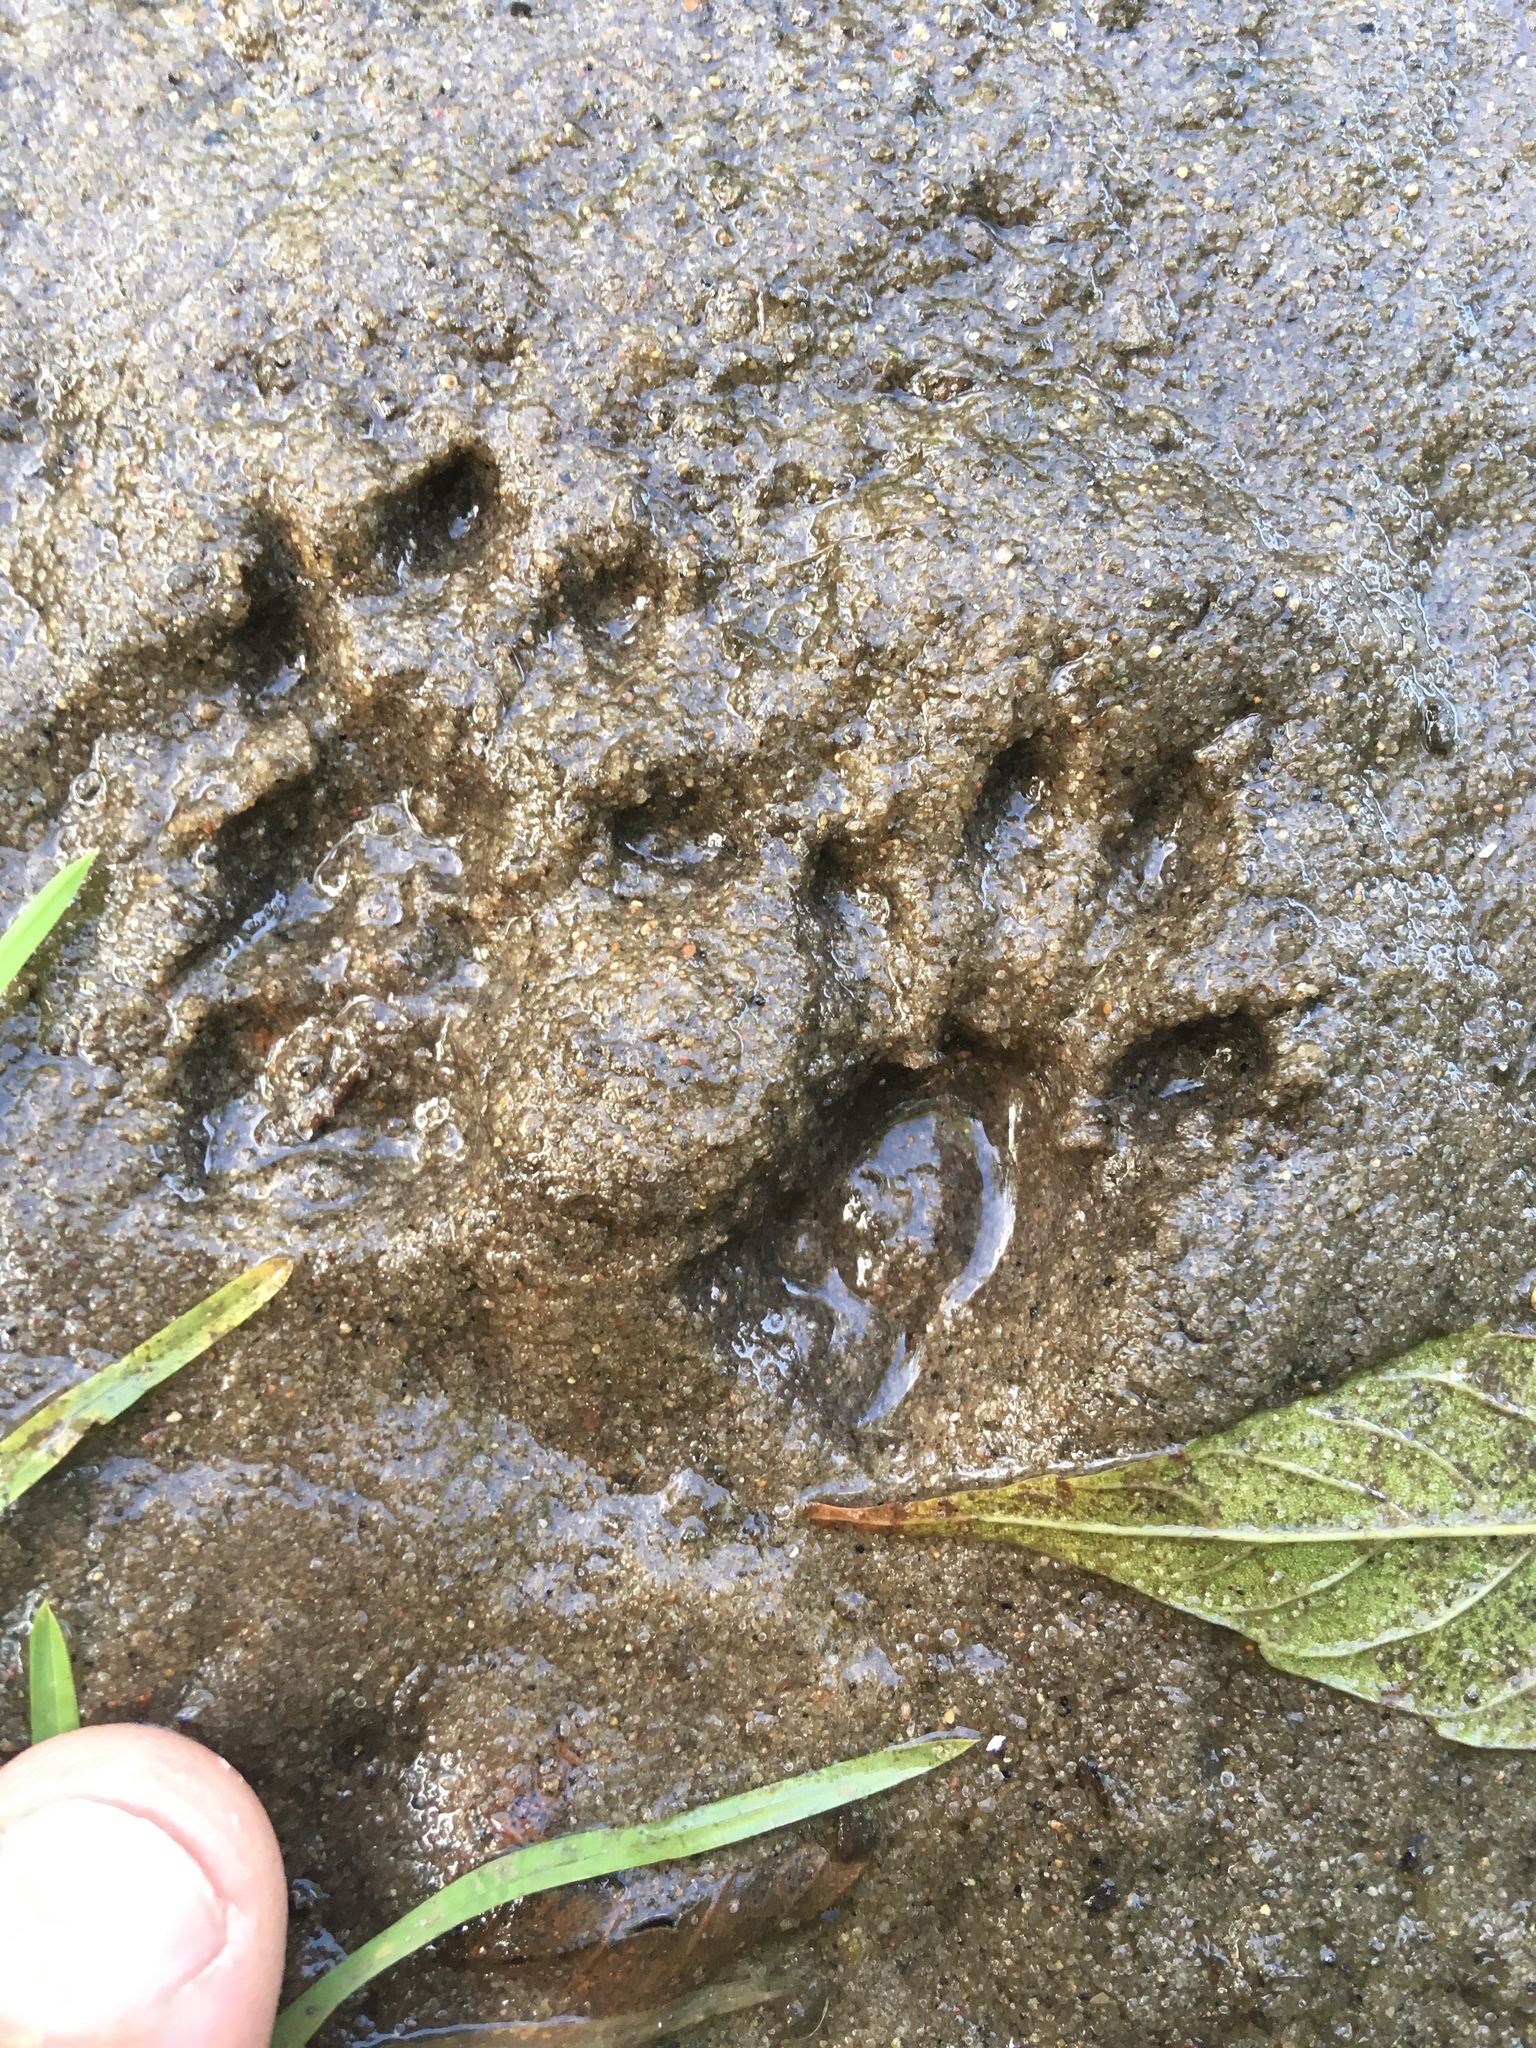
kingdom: Animalia
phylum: Chordata
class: Mammalia
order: Rodentia
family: Sciuridae
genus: Sciurus
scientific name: Sciurus carolinensis
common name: Eastern gray squirrel
